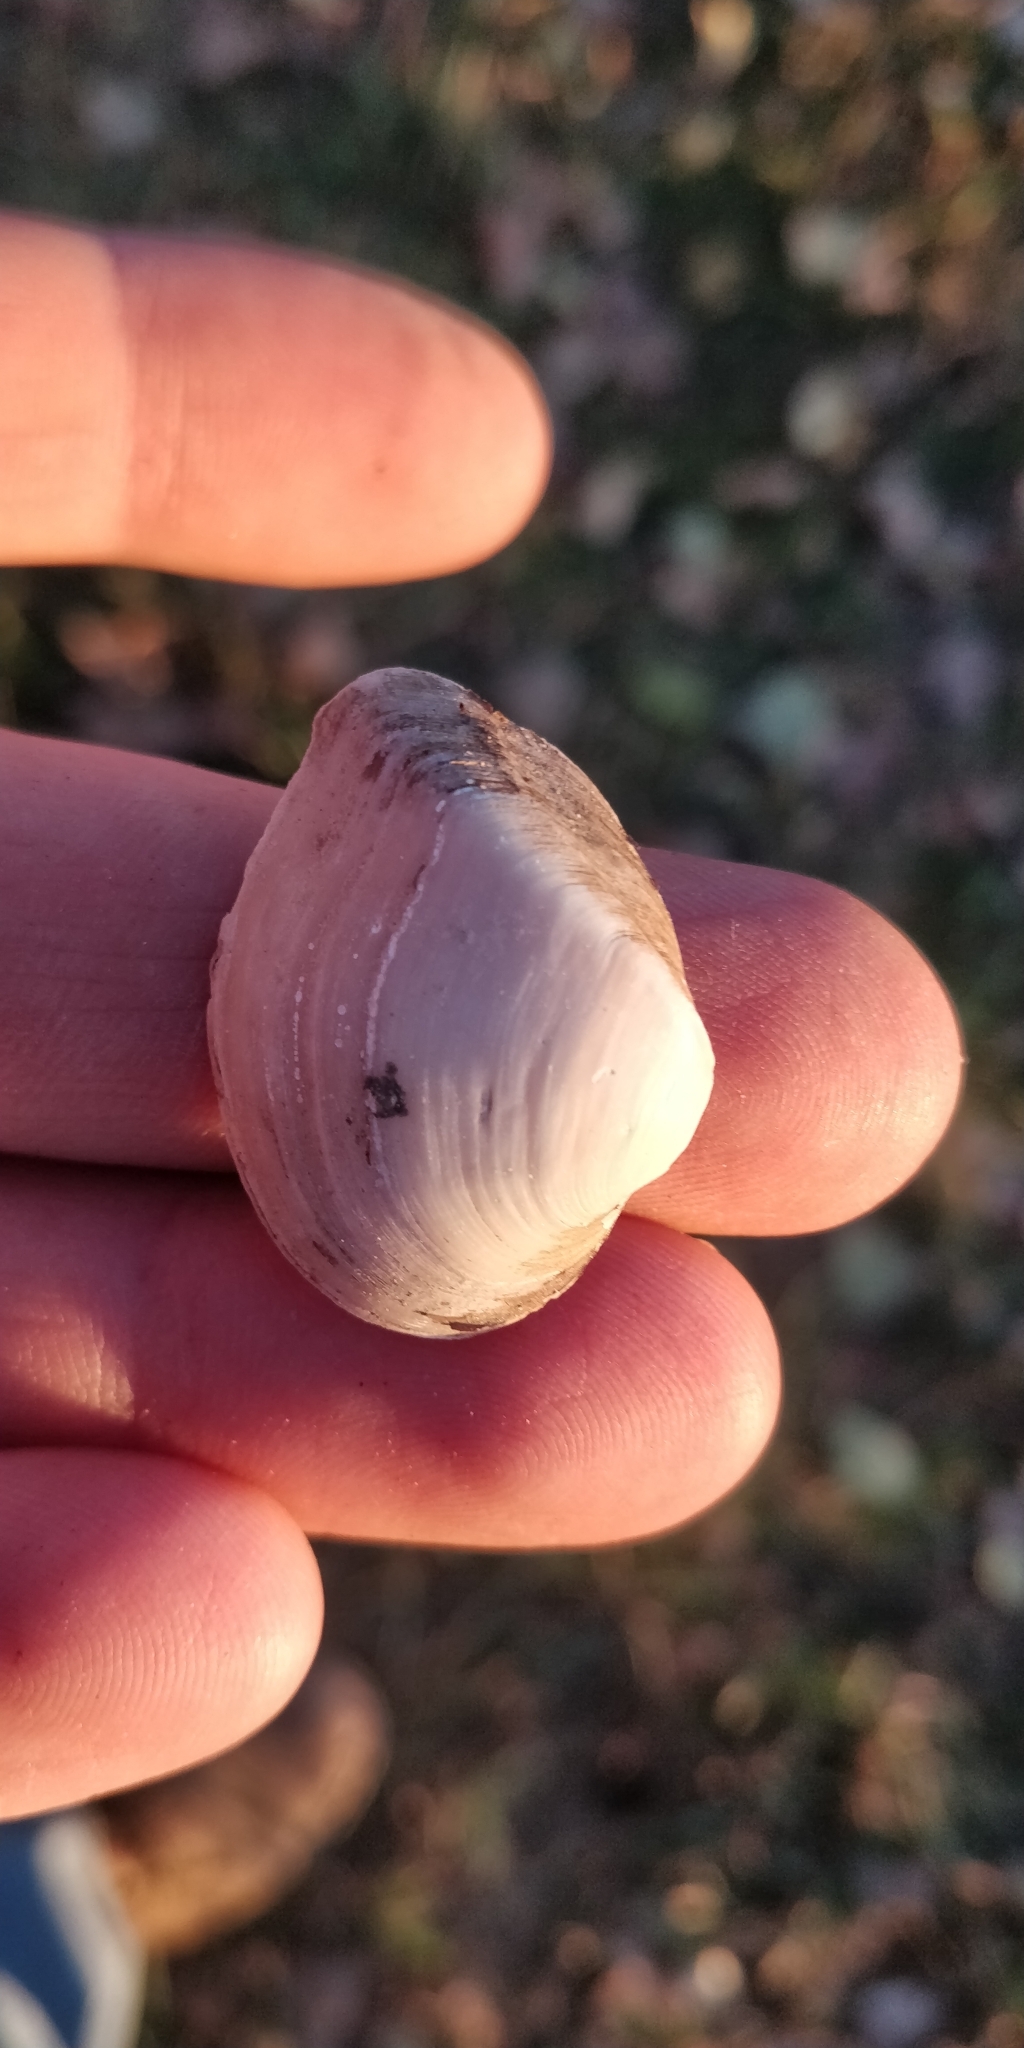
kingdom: Animalia
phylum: Mollusca
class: Bivalvia
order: Unionida
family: Unionidae
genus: Truncilla
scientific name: Truncilla truncata
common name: Deertoe
